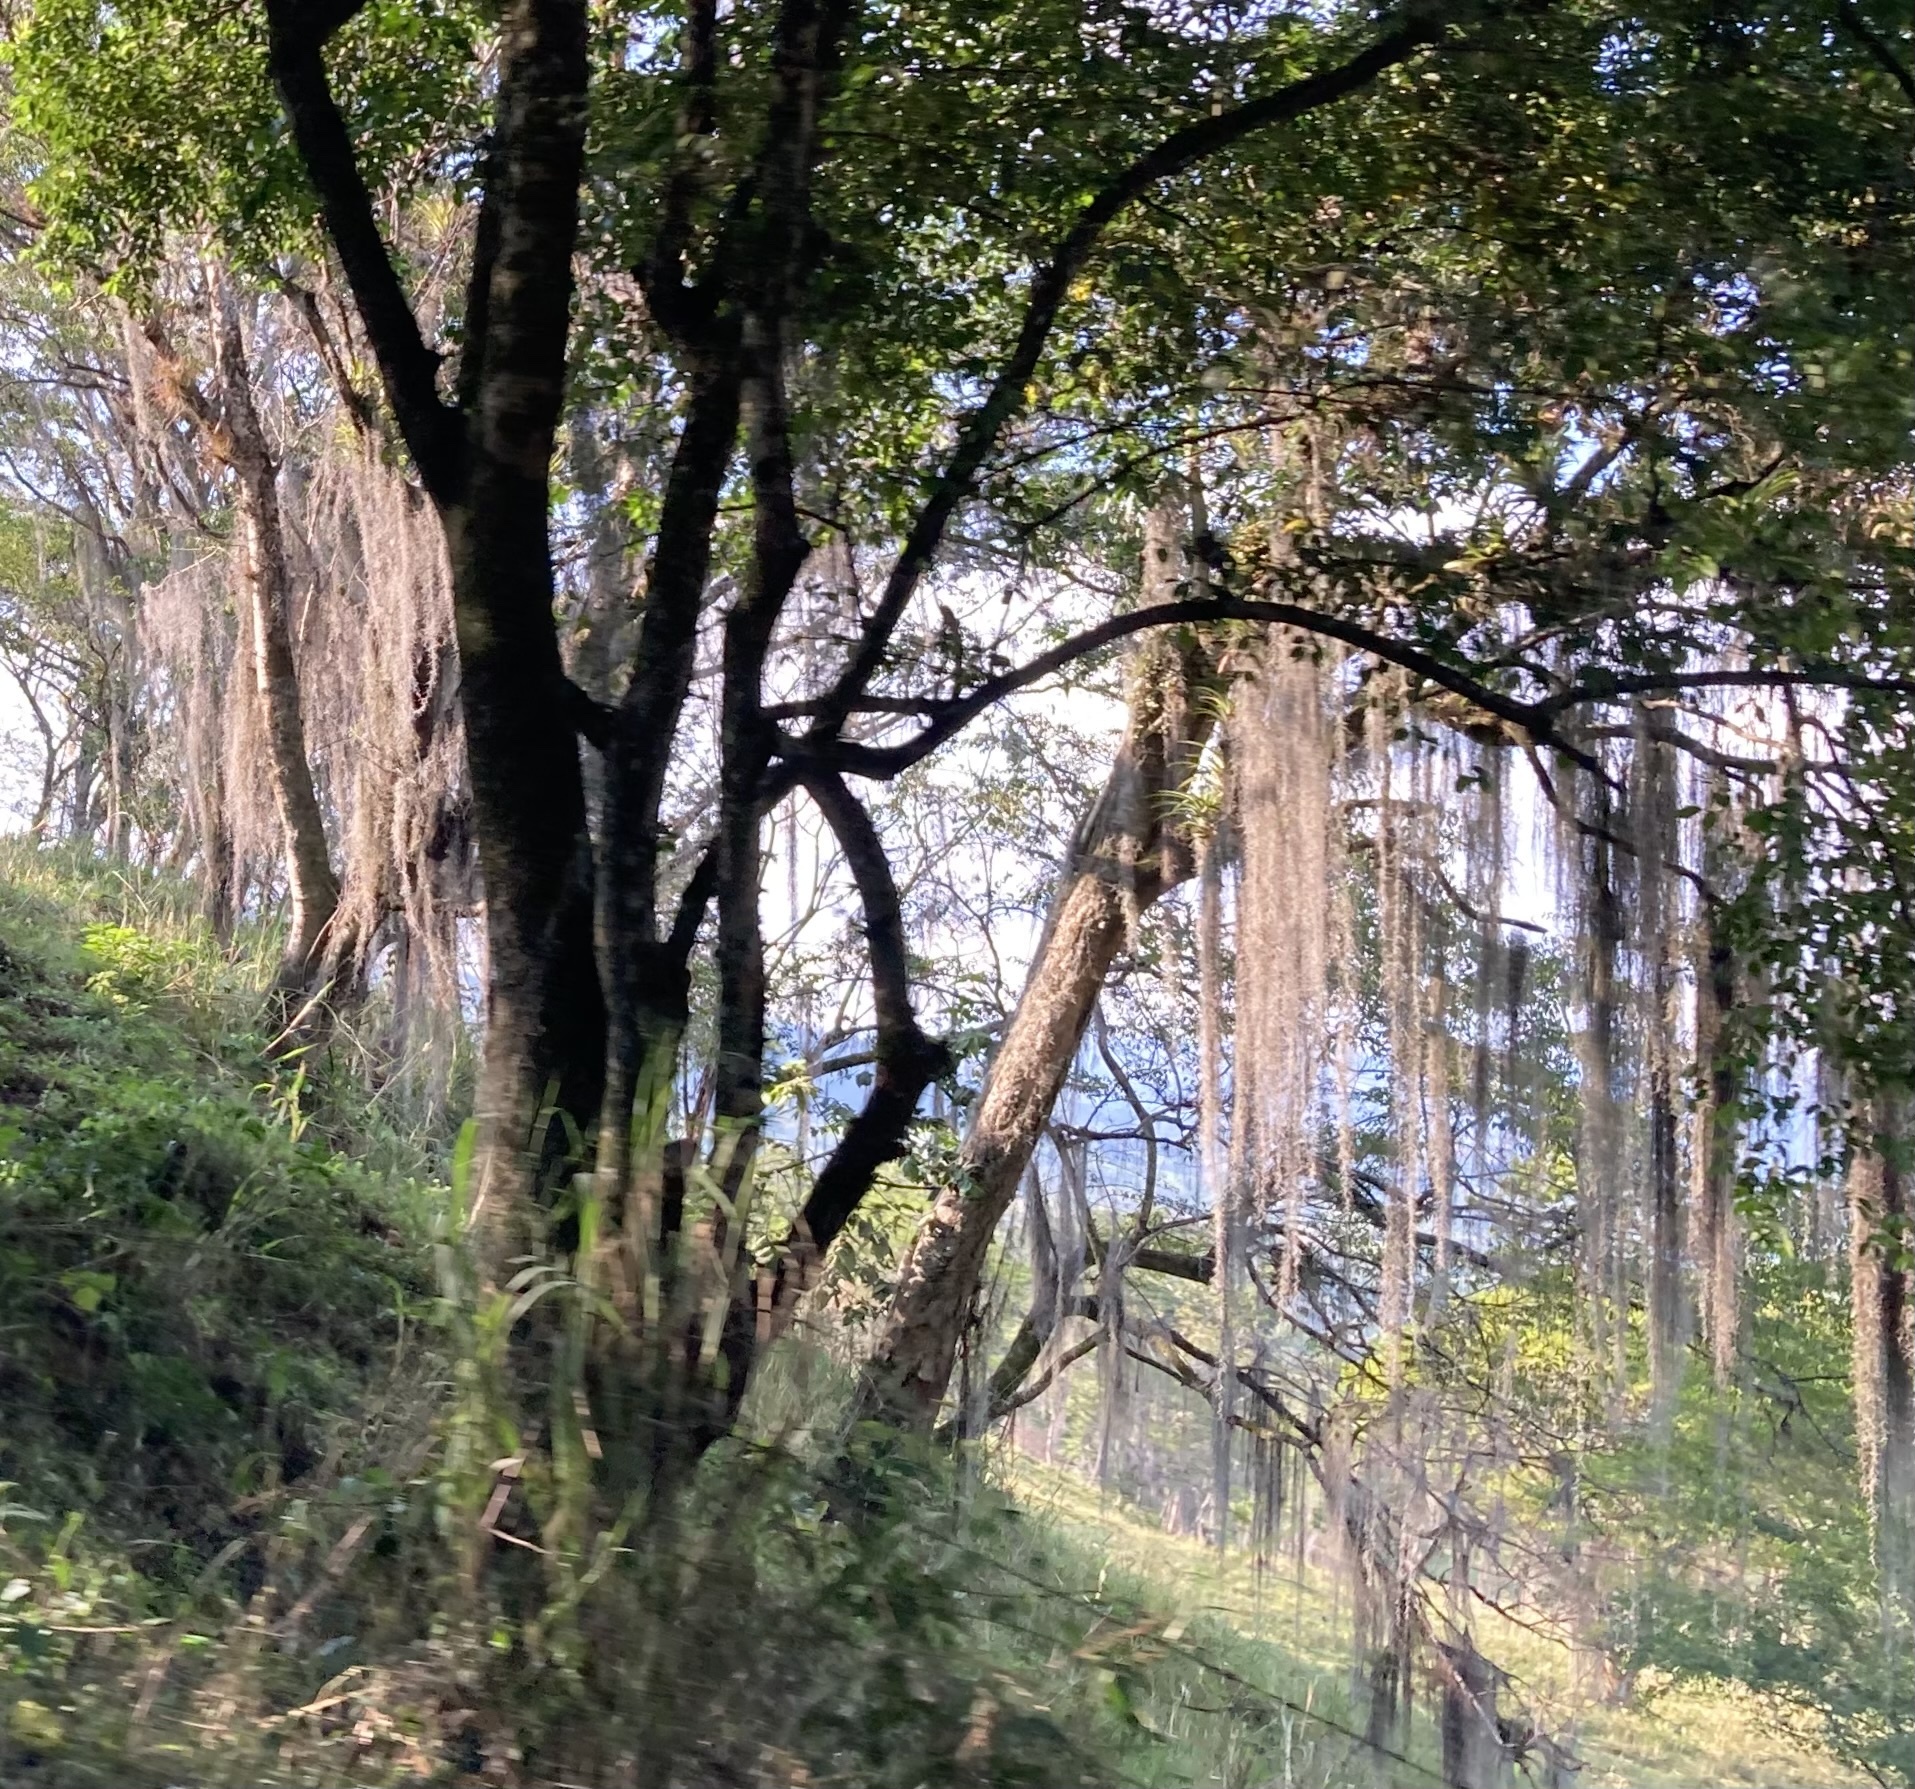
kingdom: Plantae
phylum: Tracheophyta
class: Liliopsida
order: Poales
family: Bromeliaceae
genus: Tillandsia
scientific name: Tillandsia usneoides
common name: Spanish moss
